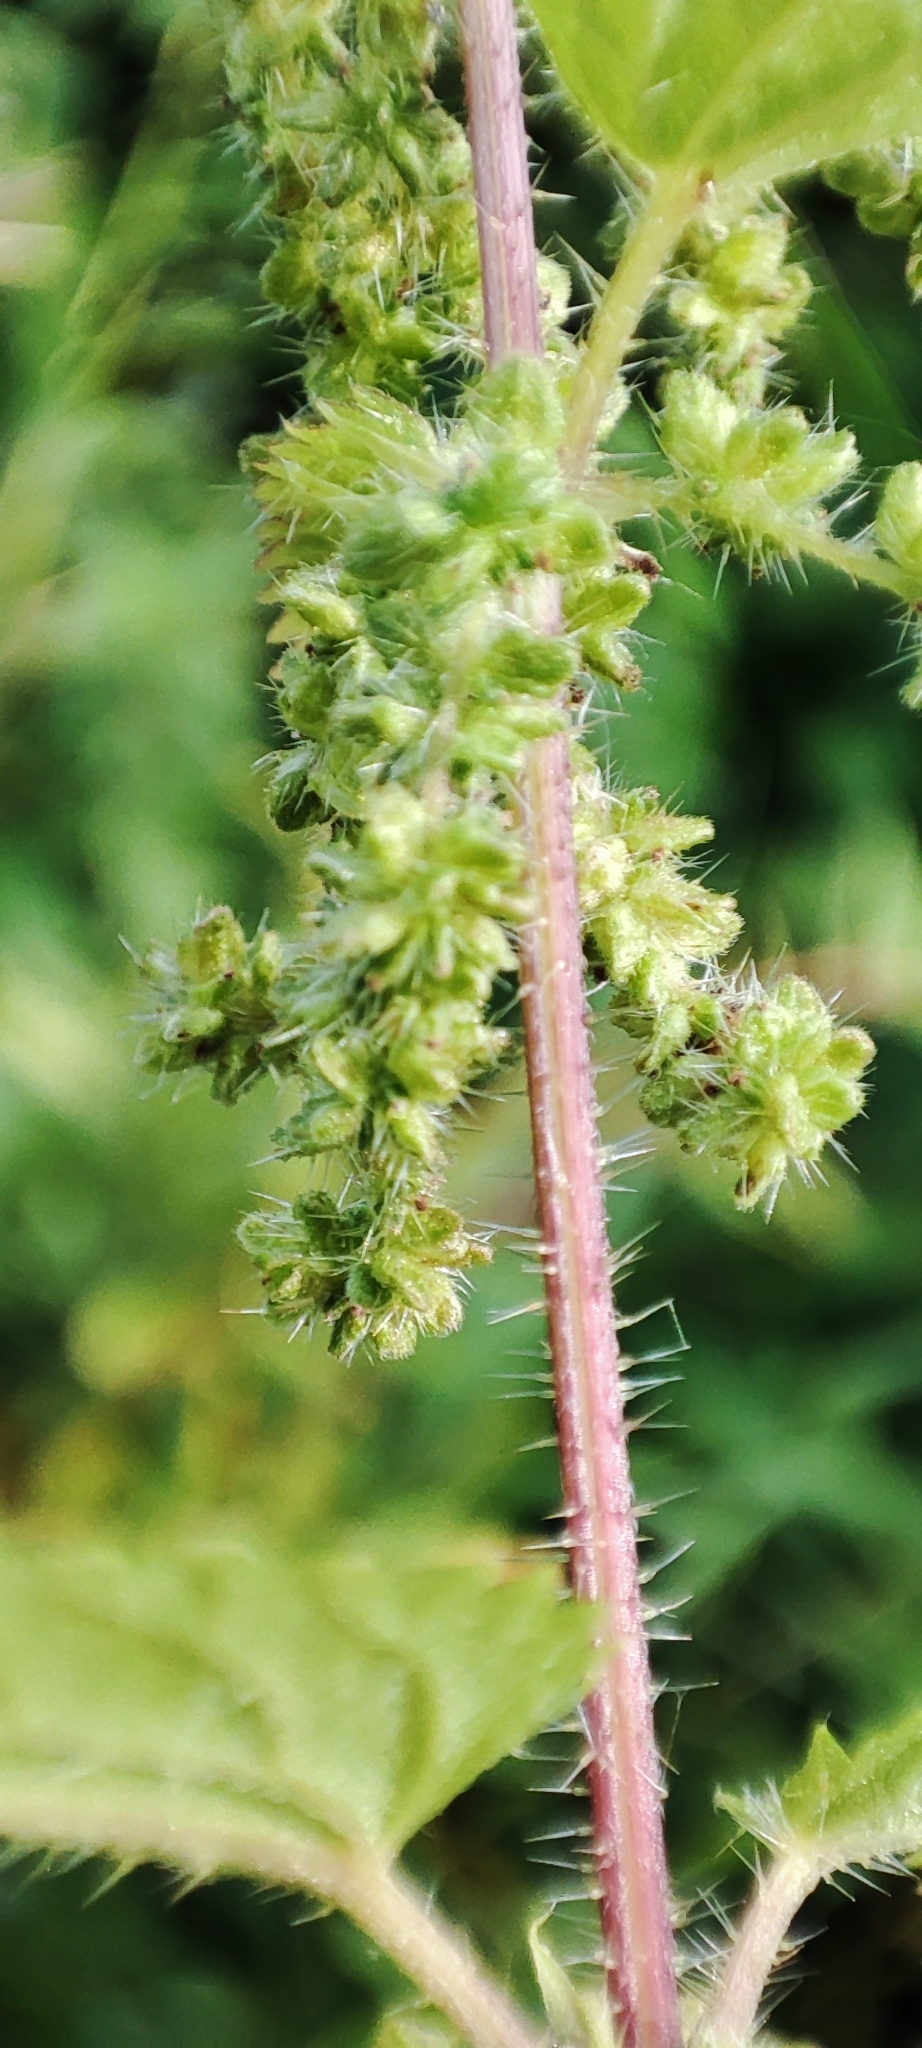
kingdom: Plantae
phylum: Tracheophyta
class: Magnoliopsida
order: Rosales
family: Urticaceae
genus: Urtica
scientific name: Urtica dioica
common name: Common nettle
